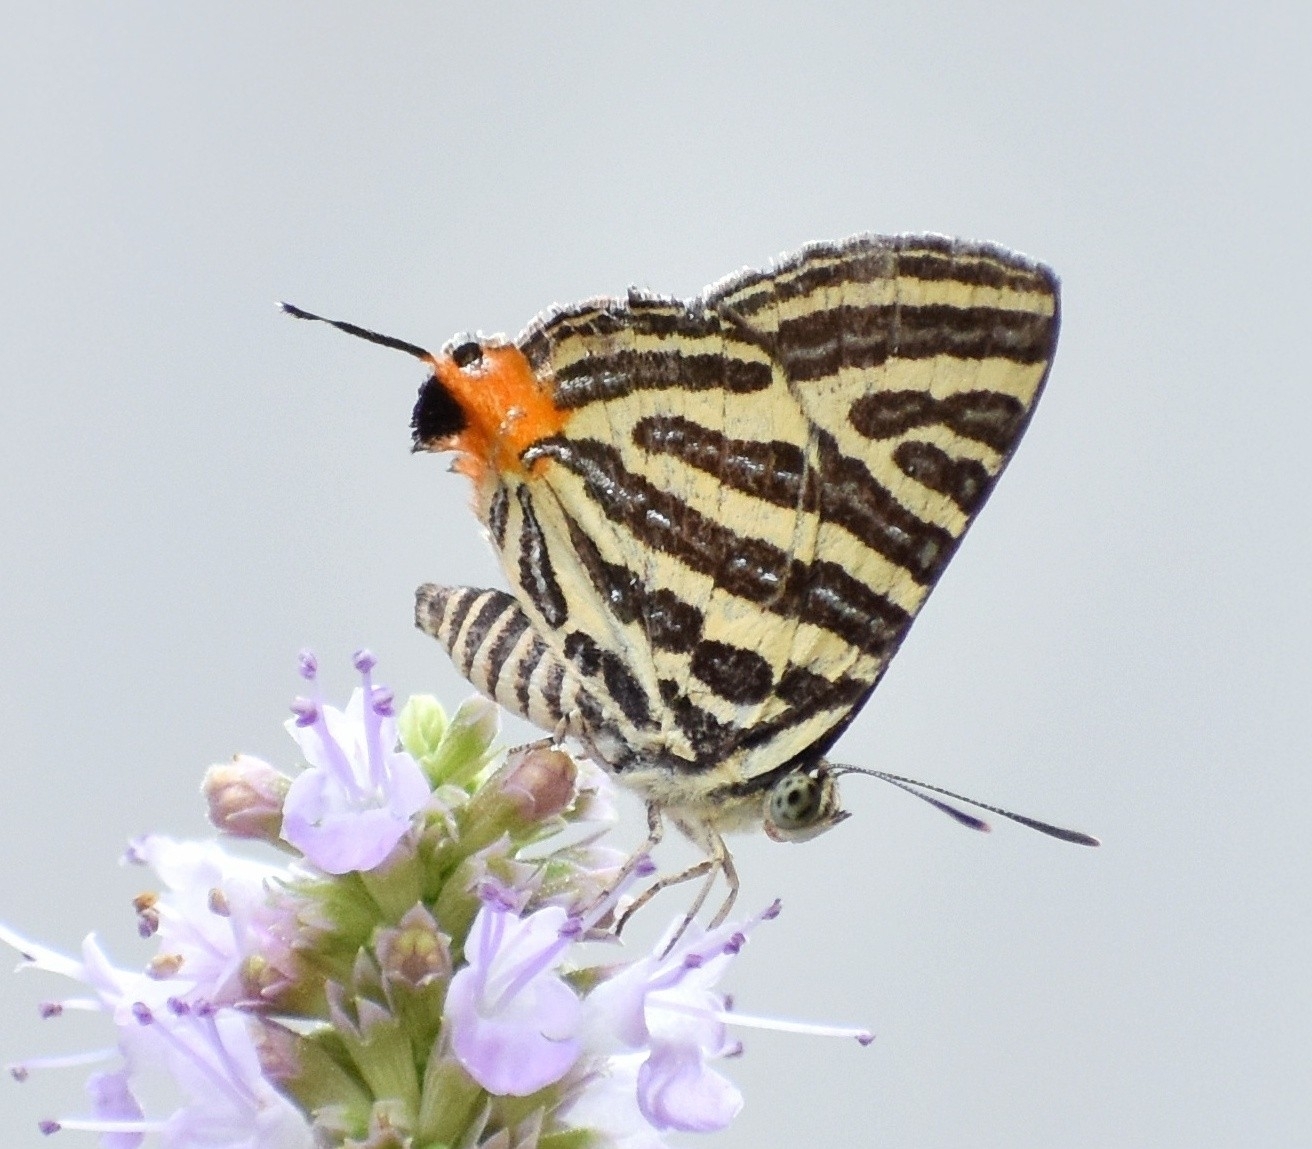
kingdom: Animalia
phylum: Arthropoda
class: Insecta
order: Lepidoptera
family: Lycaenidae
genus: Cigaritis
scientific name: Cigaritis lohita
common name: Long-banded silverline
